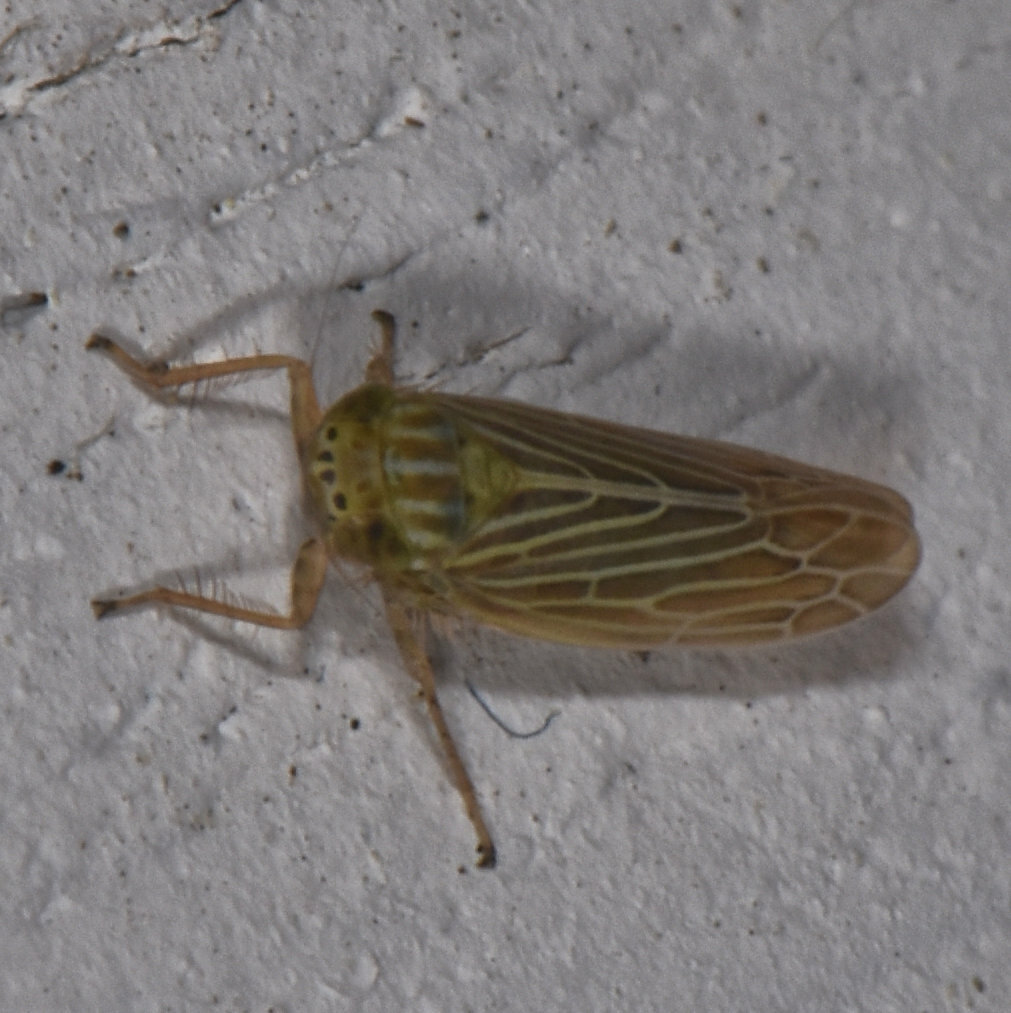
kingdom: Animalia
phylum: Arthropoda
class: Insecta
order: Hemiptera
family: Cicadellidae
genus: Graminella
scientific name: Graminella fitchii
